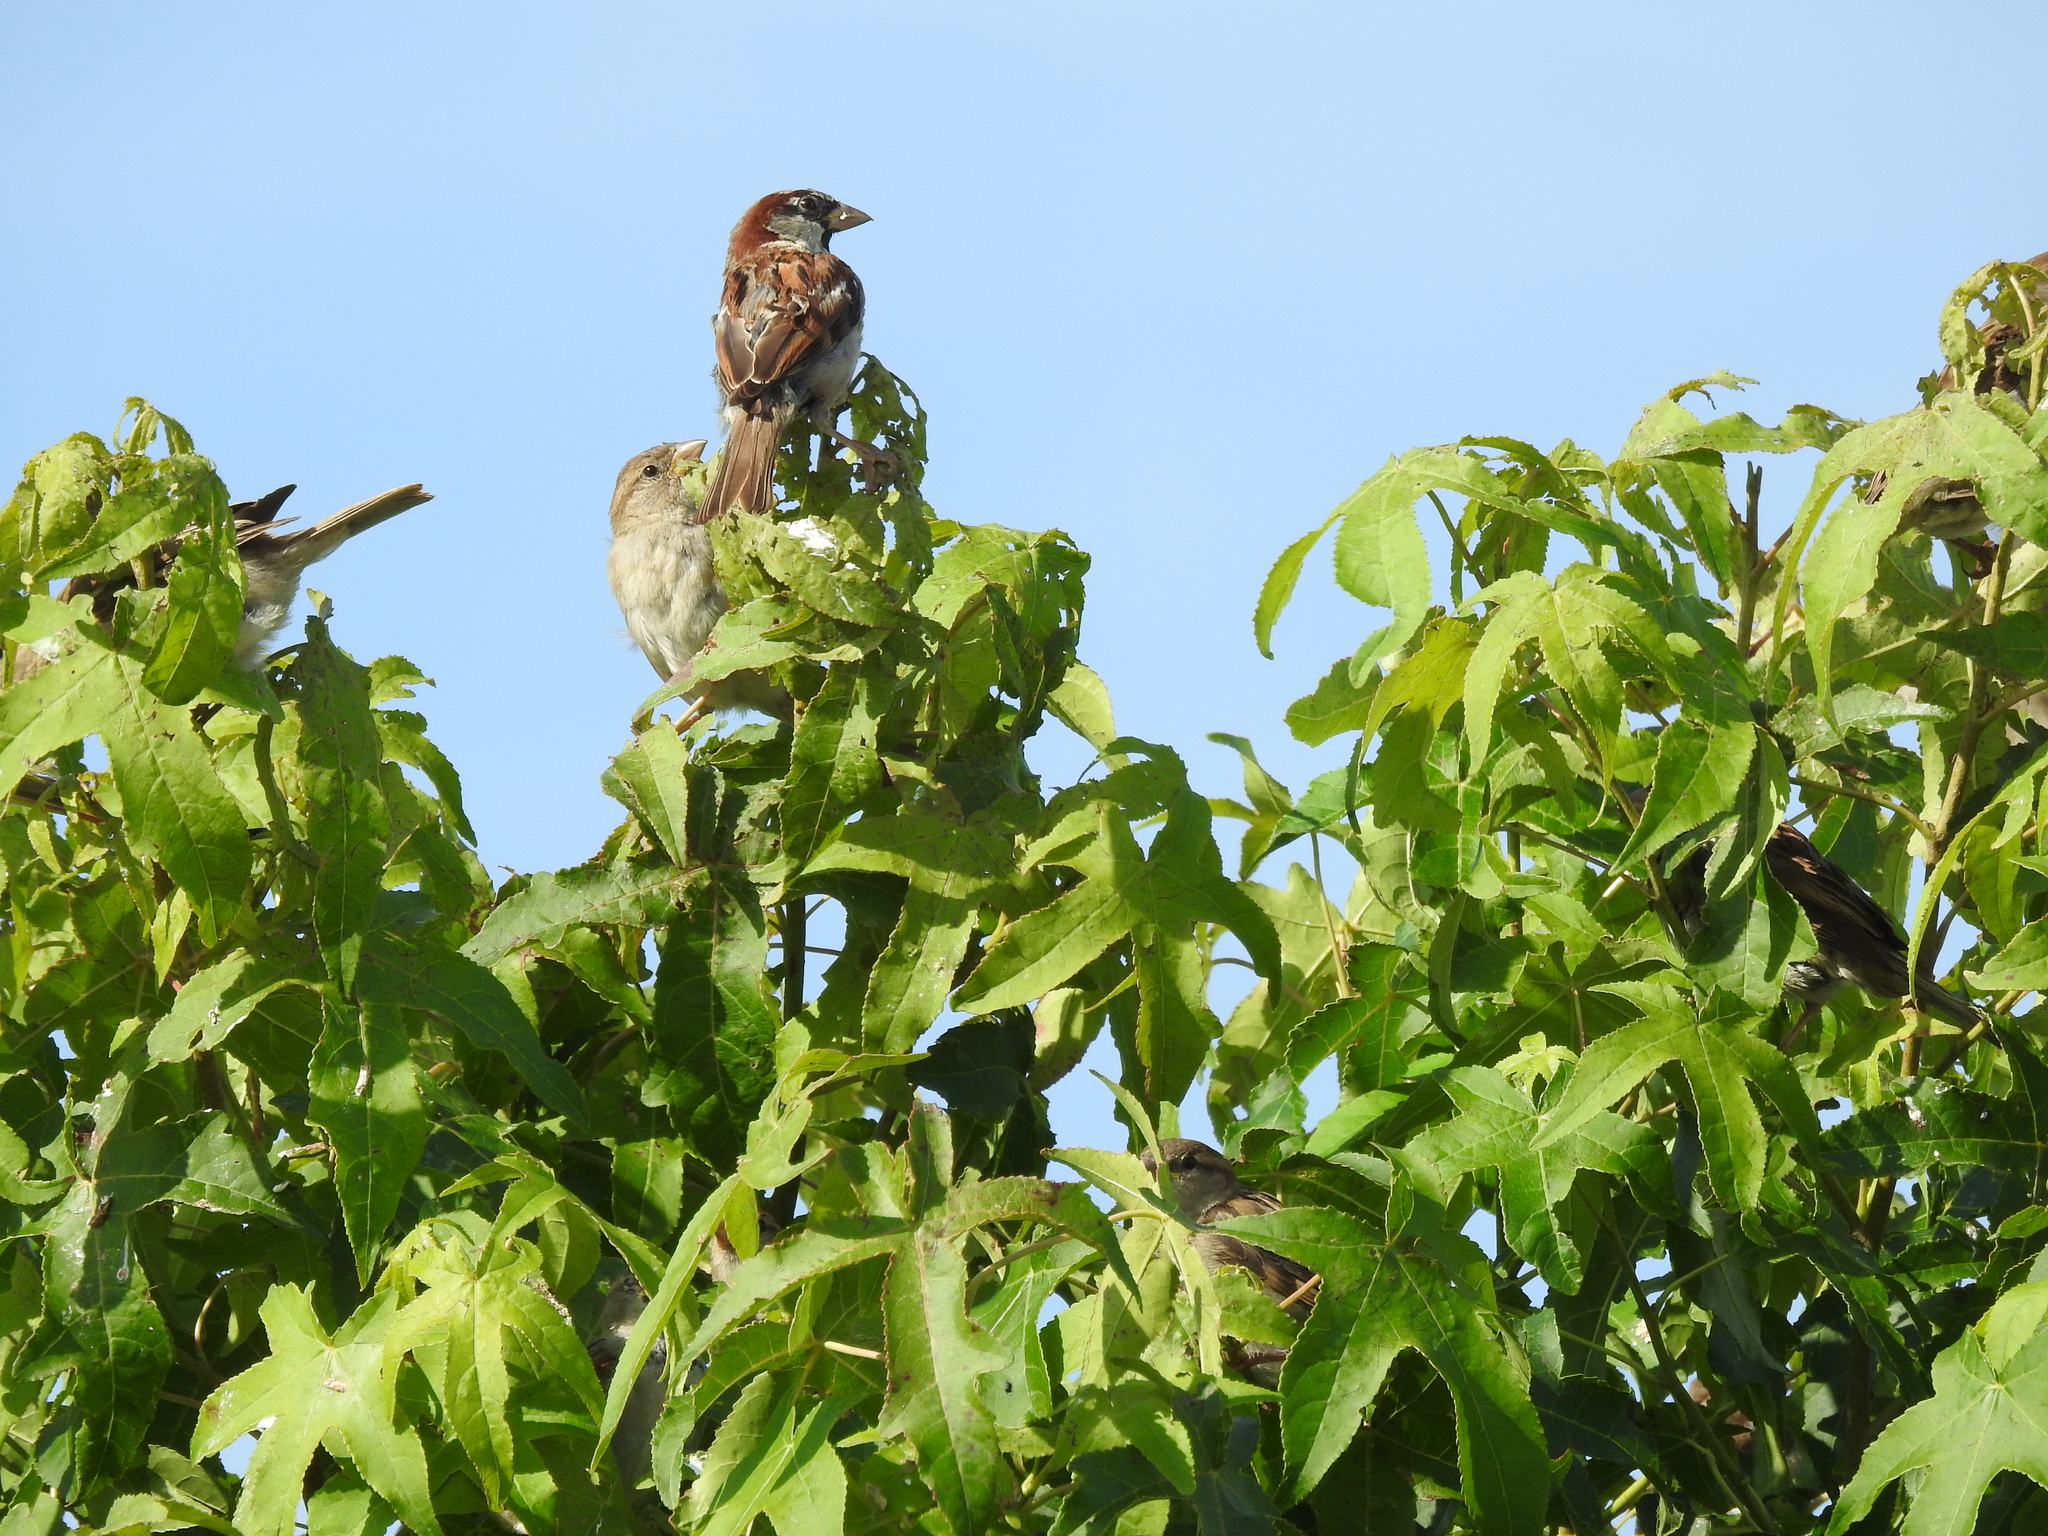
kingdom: Animalia
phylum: Chordata
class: Aves
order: Passeriformes
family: Passeridae
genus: Passer
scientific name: Passer domesticus
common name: House sparrow
